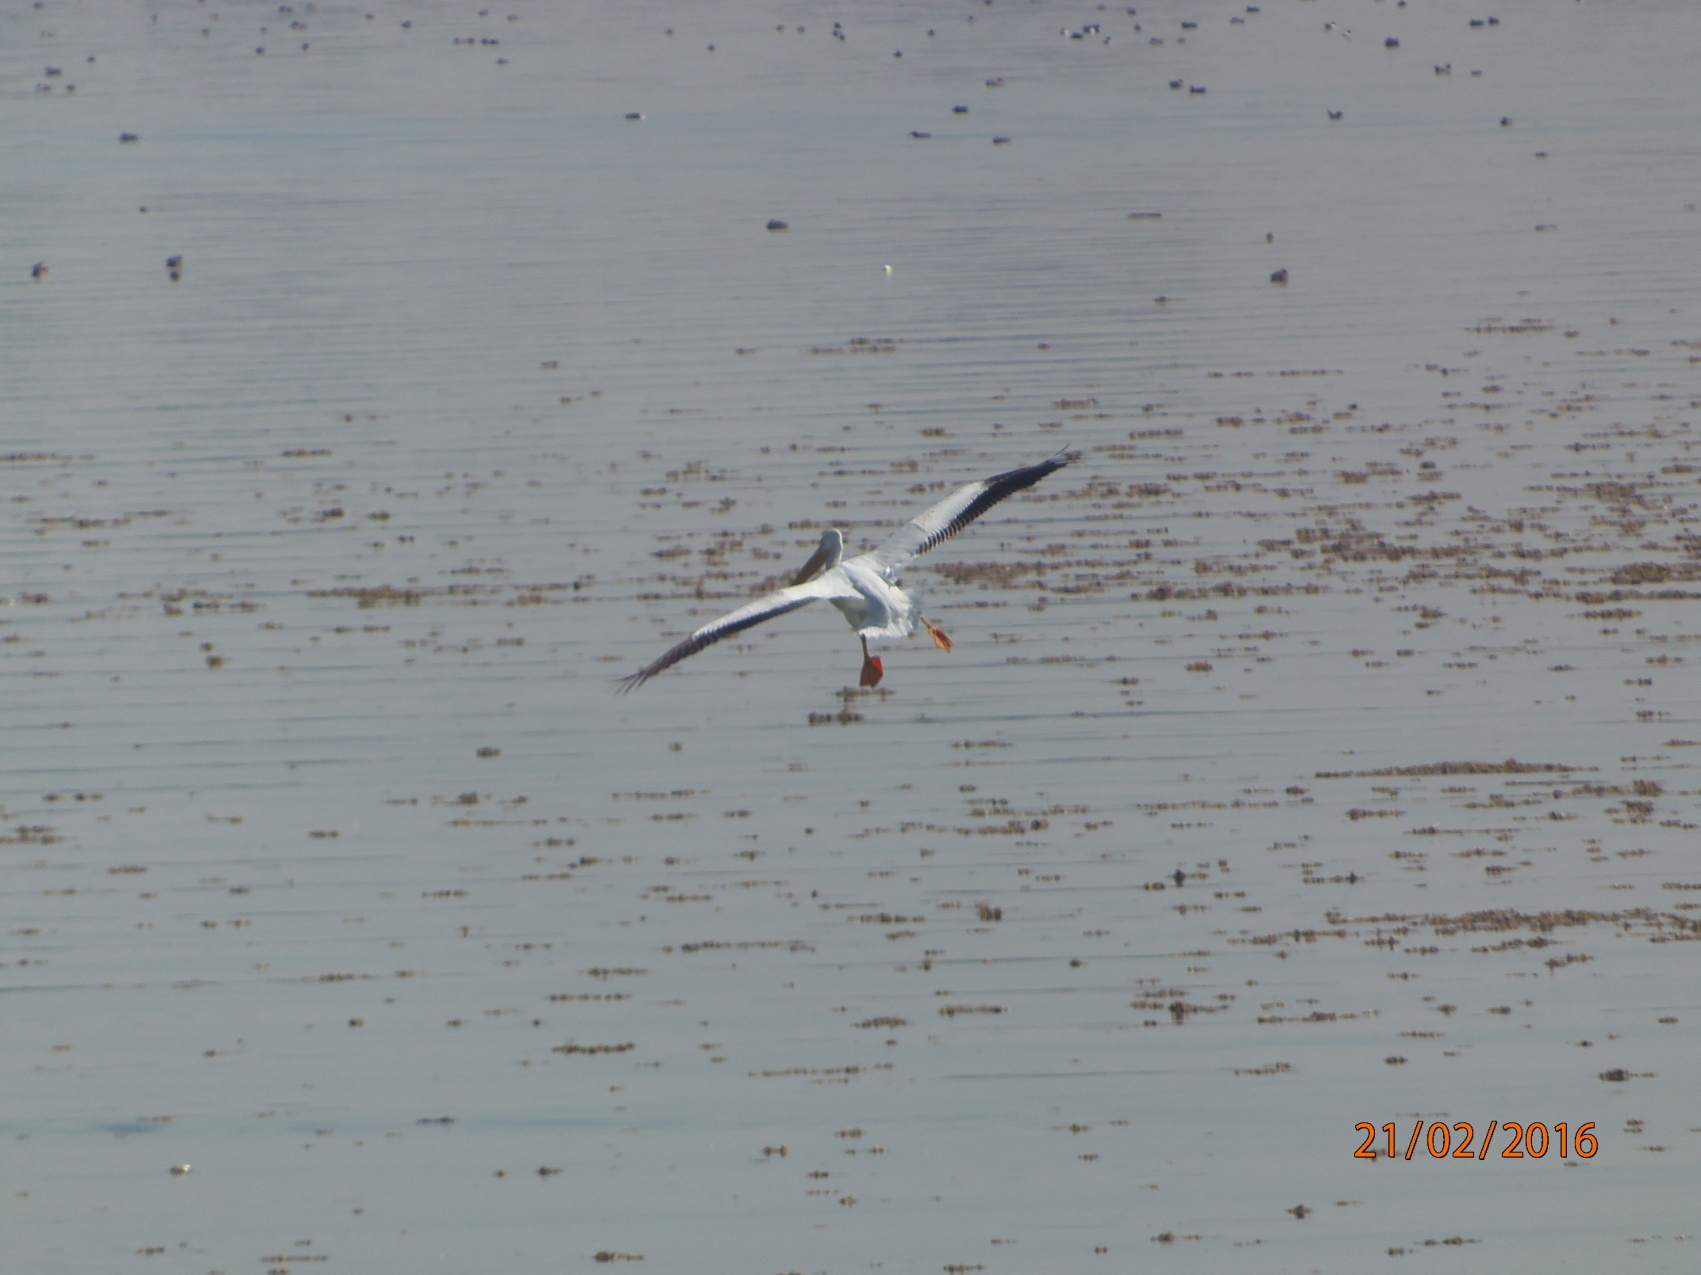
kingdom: Animalia
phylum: Chordata
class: Aves
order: Pelecaniformes
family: Pelecanidae
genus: Pelecanus
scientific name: Pelecanus erythrorhynchos
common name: American white pelican
